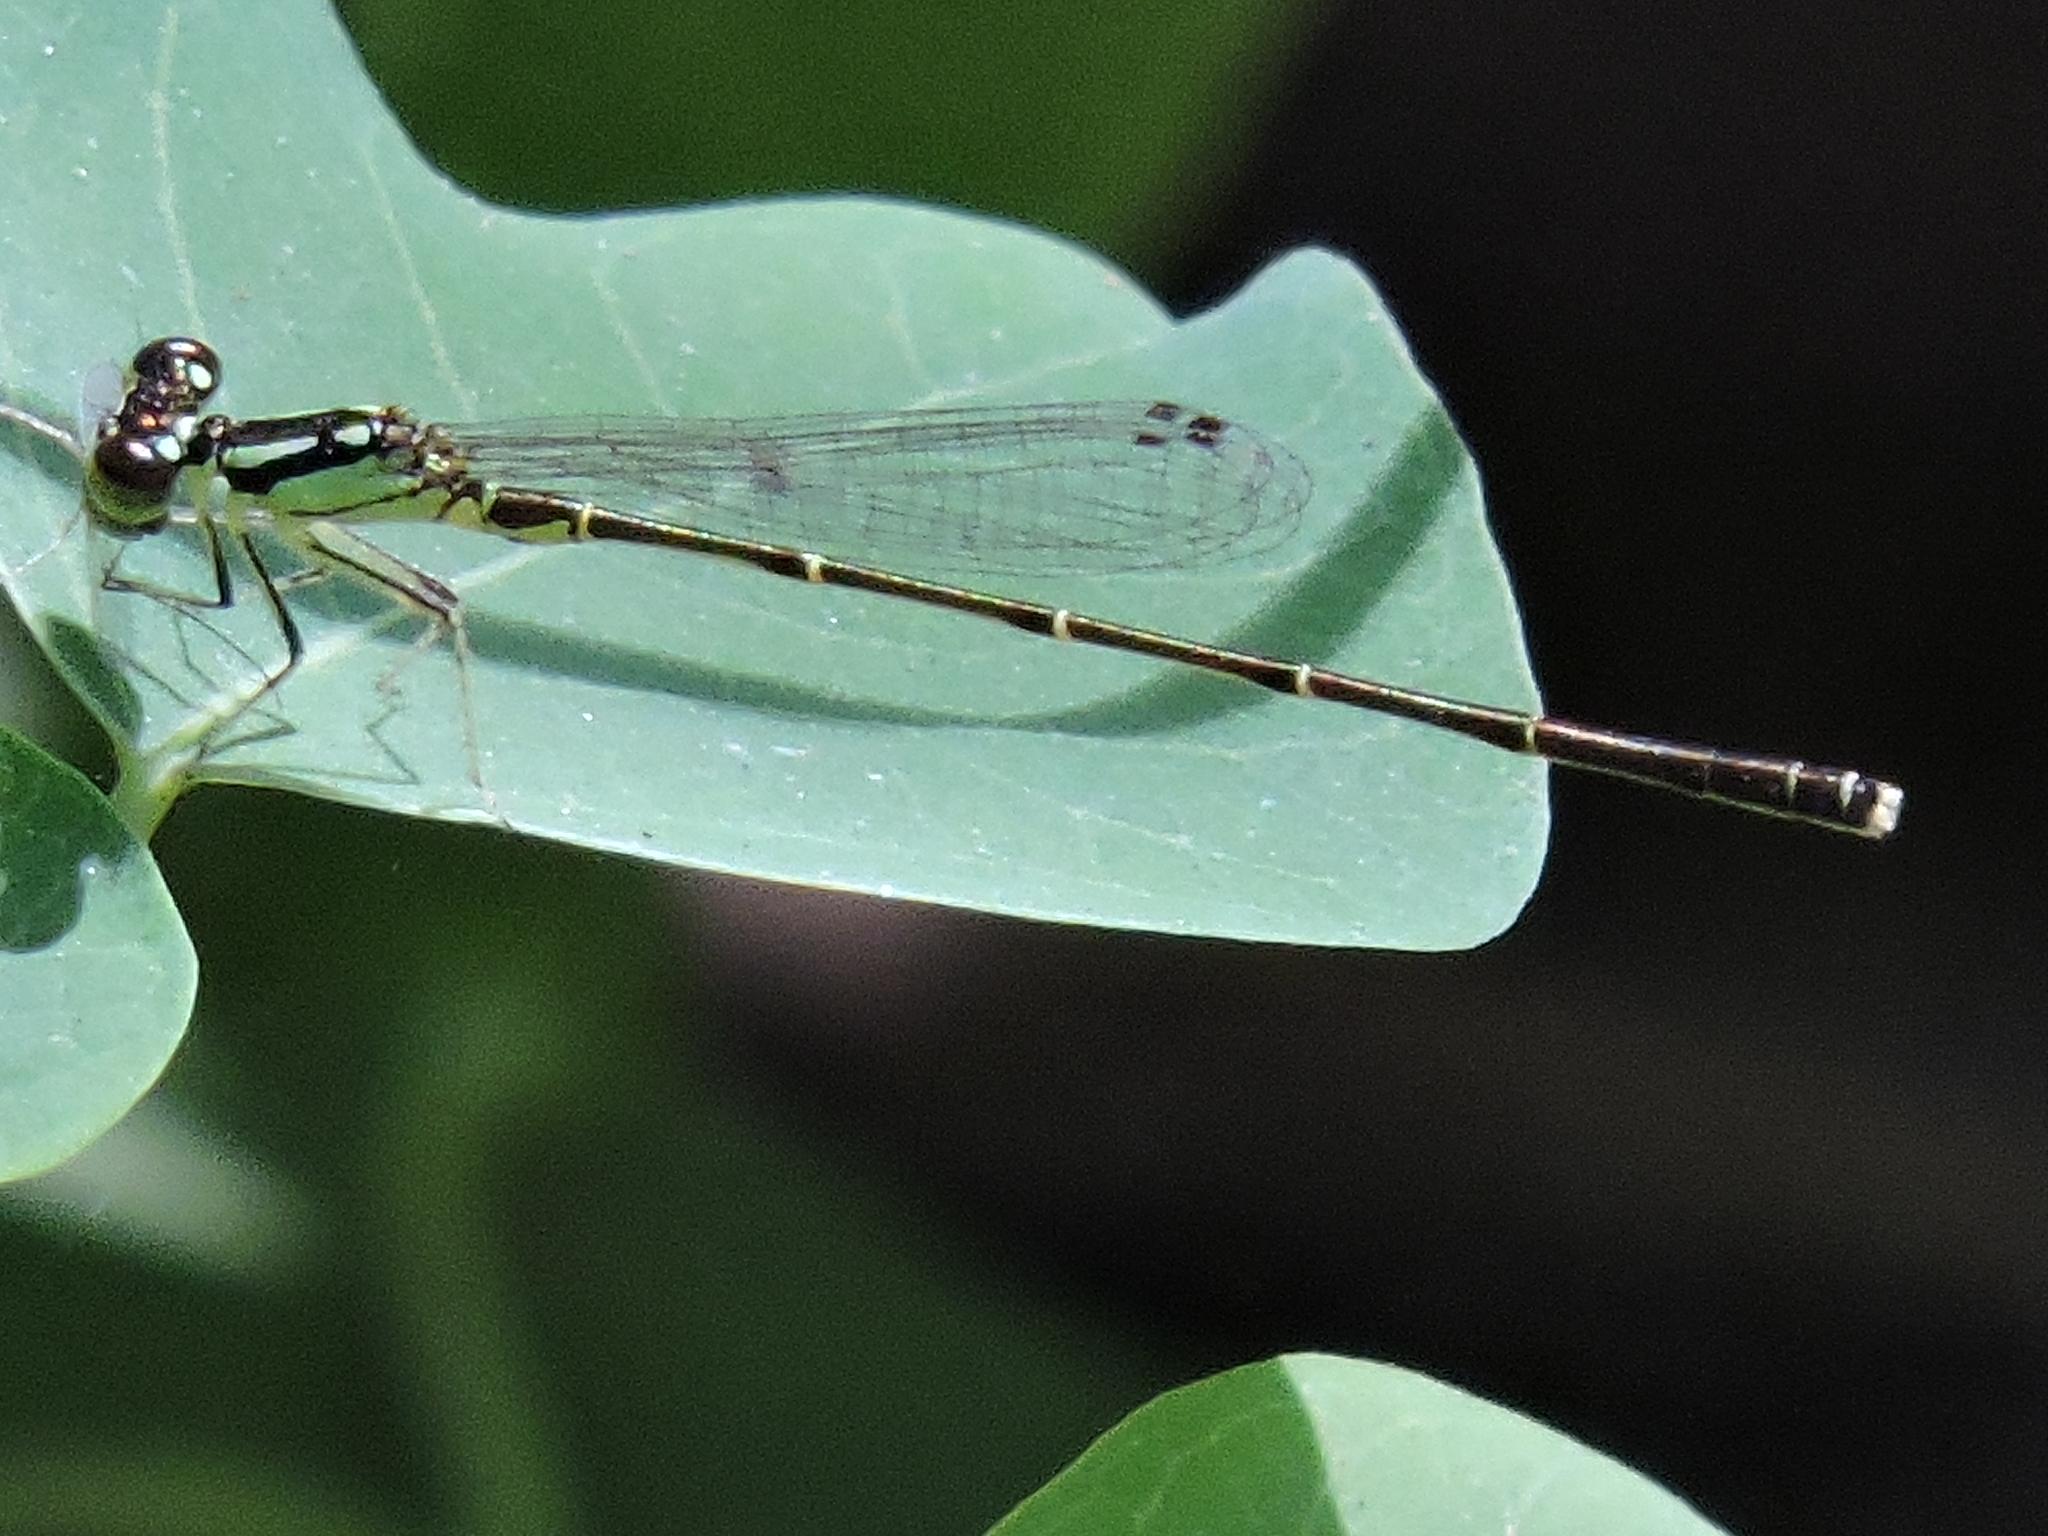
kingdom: Animalia
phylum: Arthropoda
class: Insecta
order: Odonata
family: Coenagrionidae
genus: Ischnura
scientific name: Ischnura posita
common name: Fragile forktail
